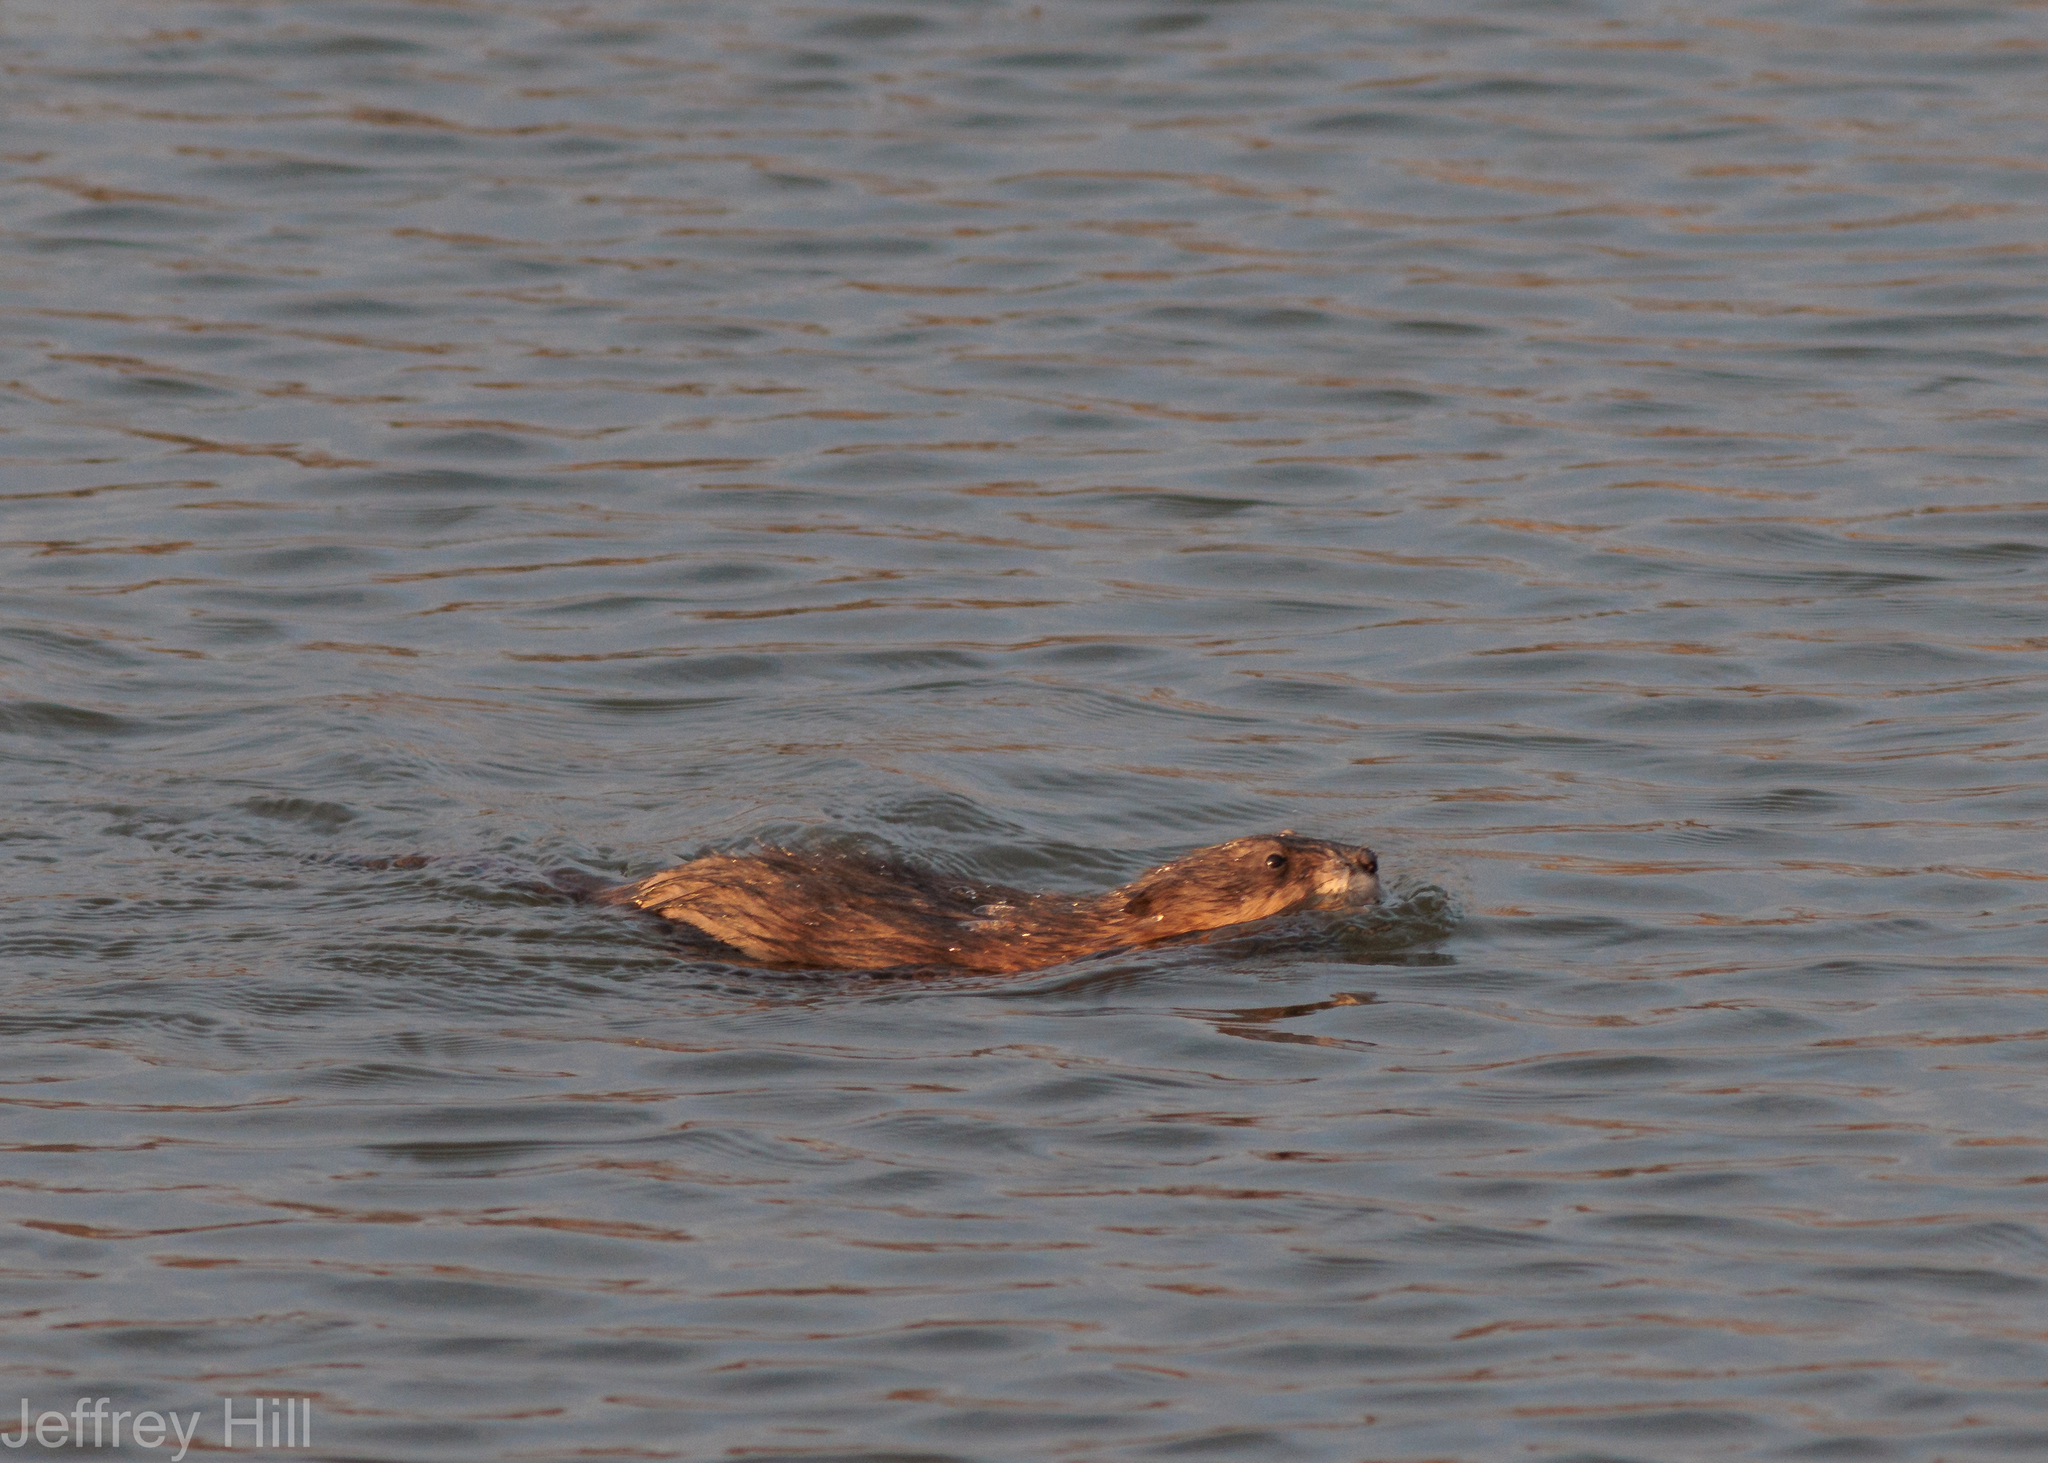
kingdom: Animalia
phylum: Chordata
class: Mammalia
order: Rodentia
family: Cricetidae
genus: Ondatra
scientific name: Ondatra zibethicus
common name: Muskrat
